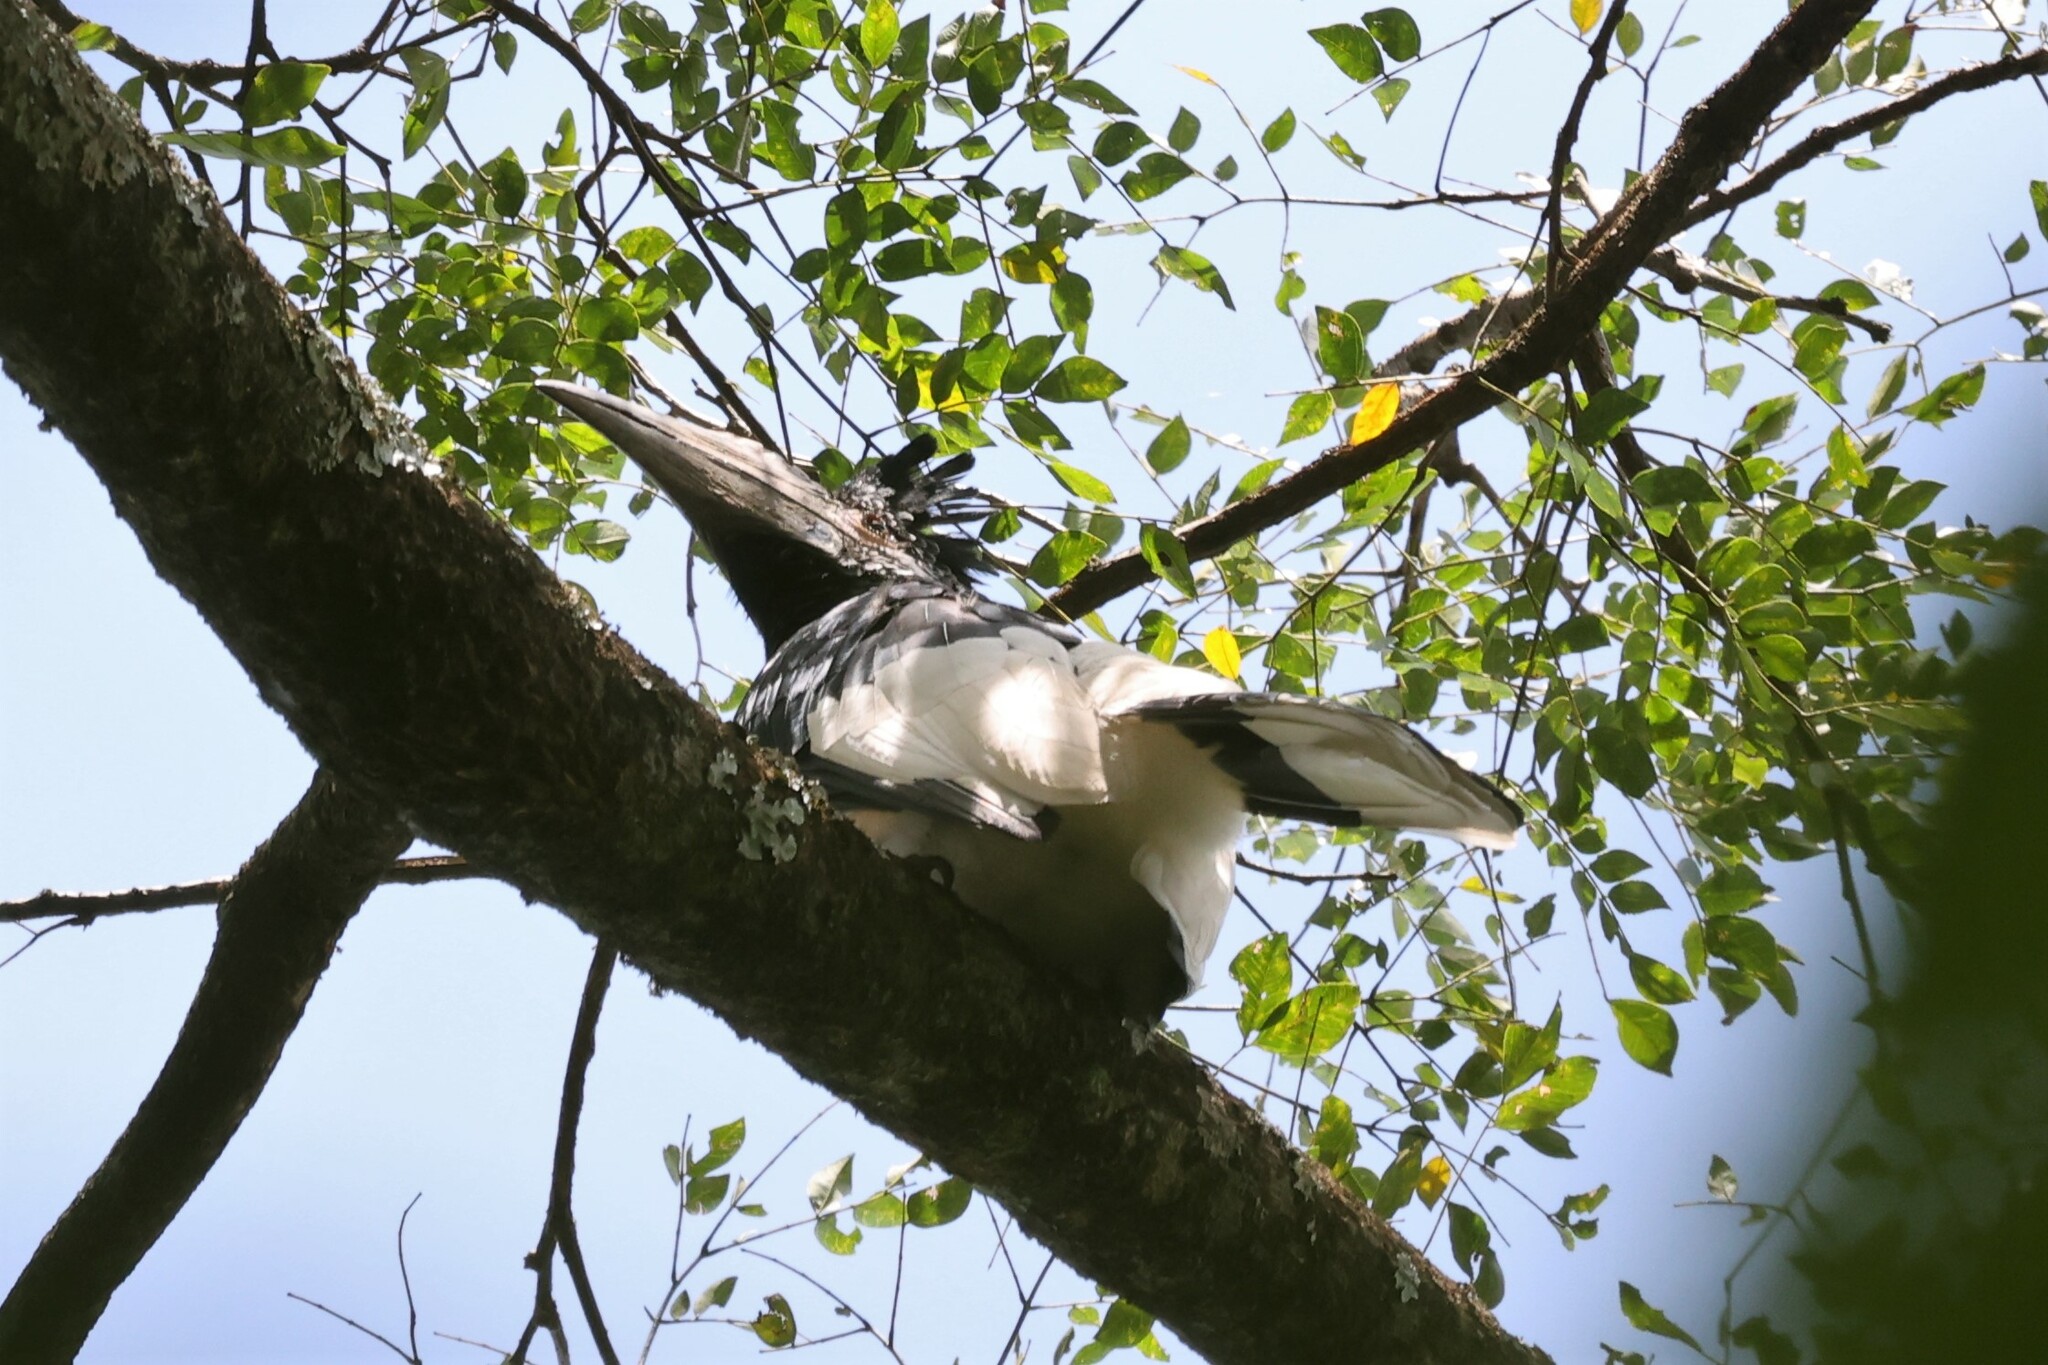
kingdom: Animalia
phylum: Chordata
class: Aves
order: Bucerotiformes
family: Bucerotidae
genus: Bycanistes
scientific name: Bycanistes subcylindricus
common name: Black-and-white-casqued hornbill
